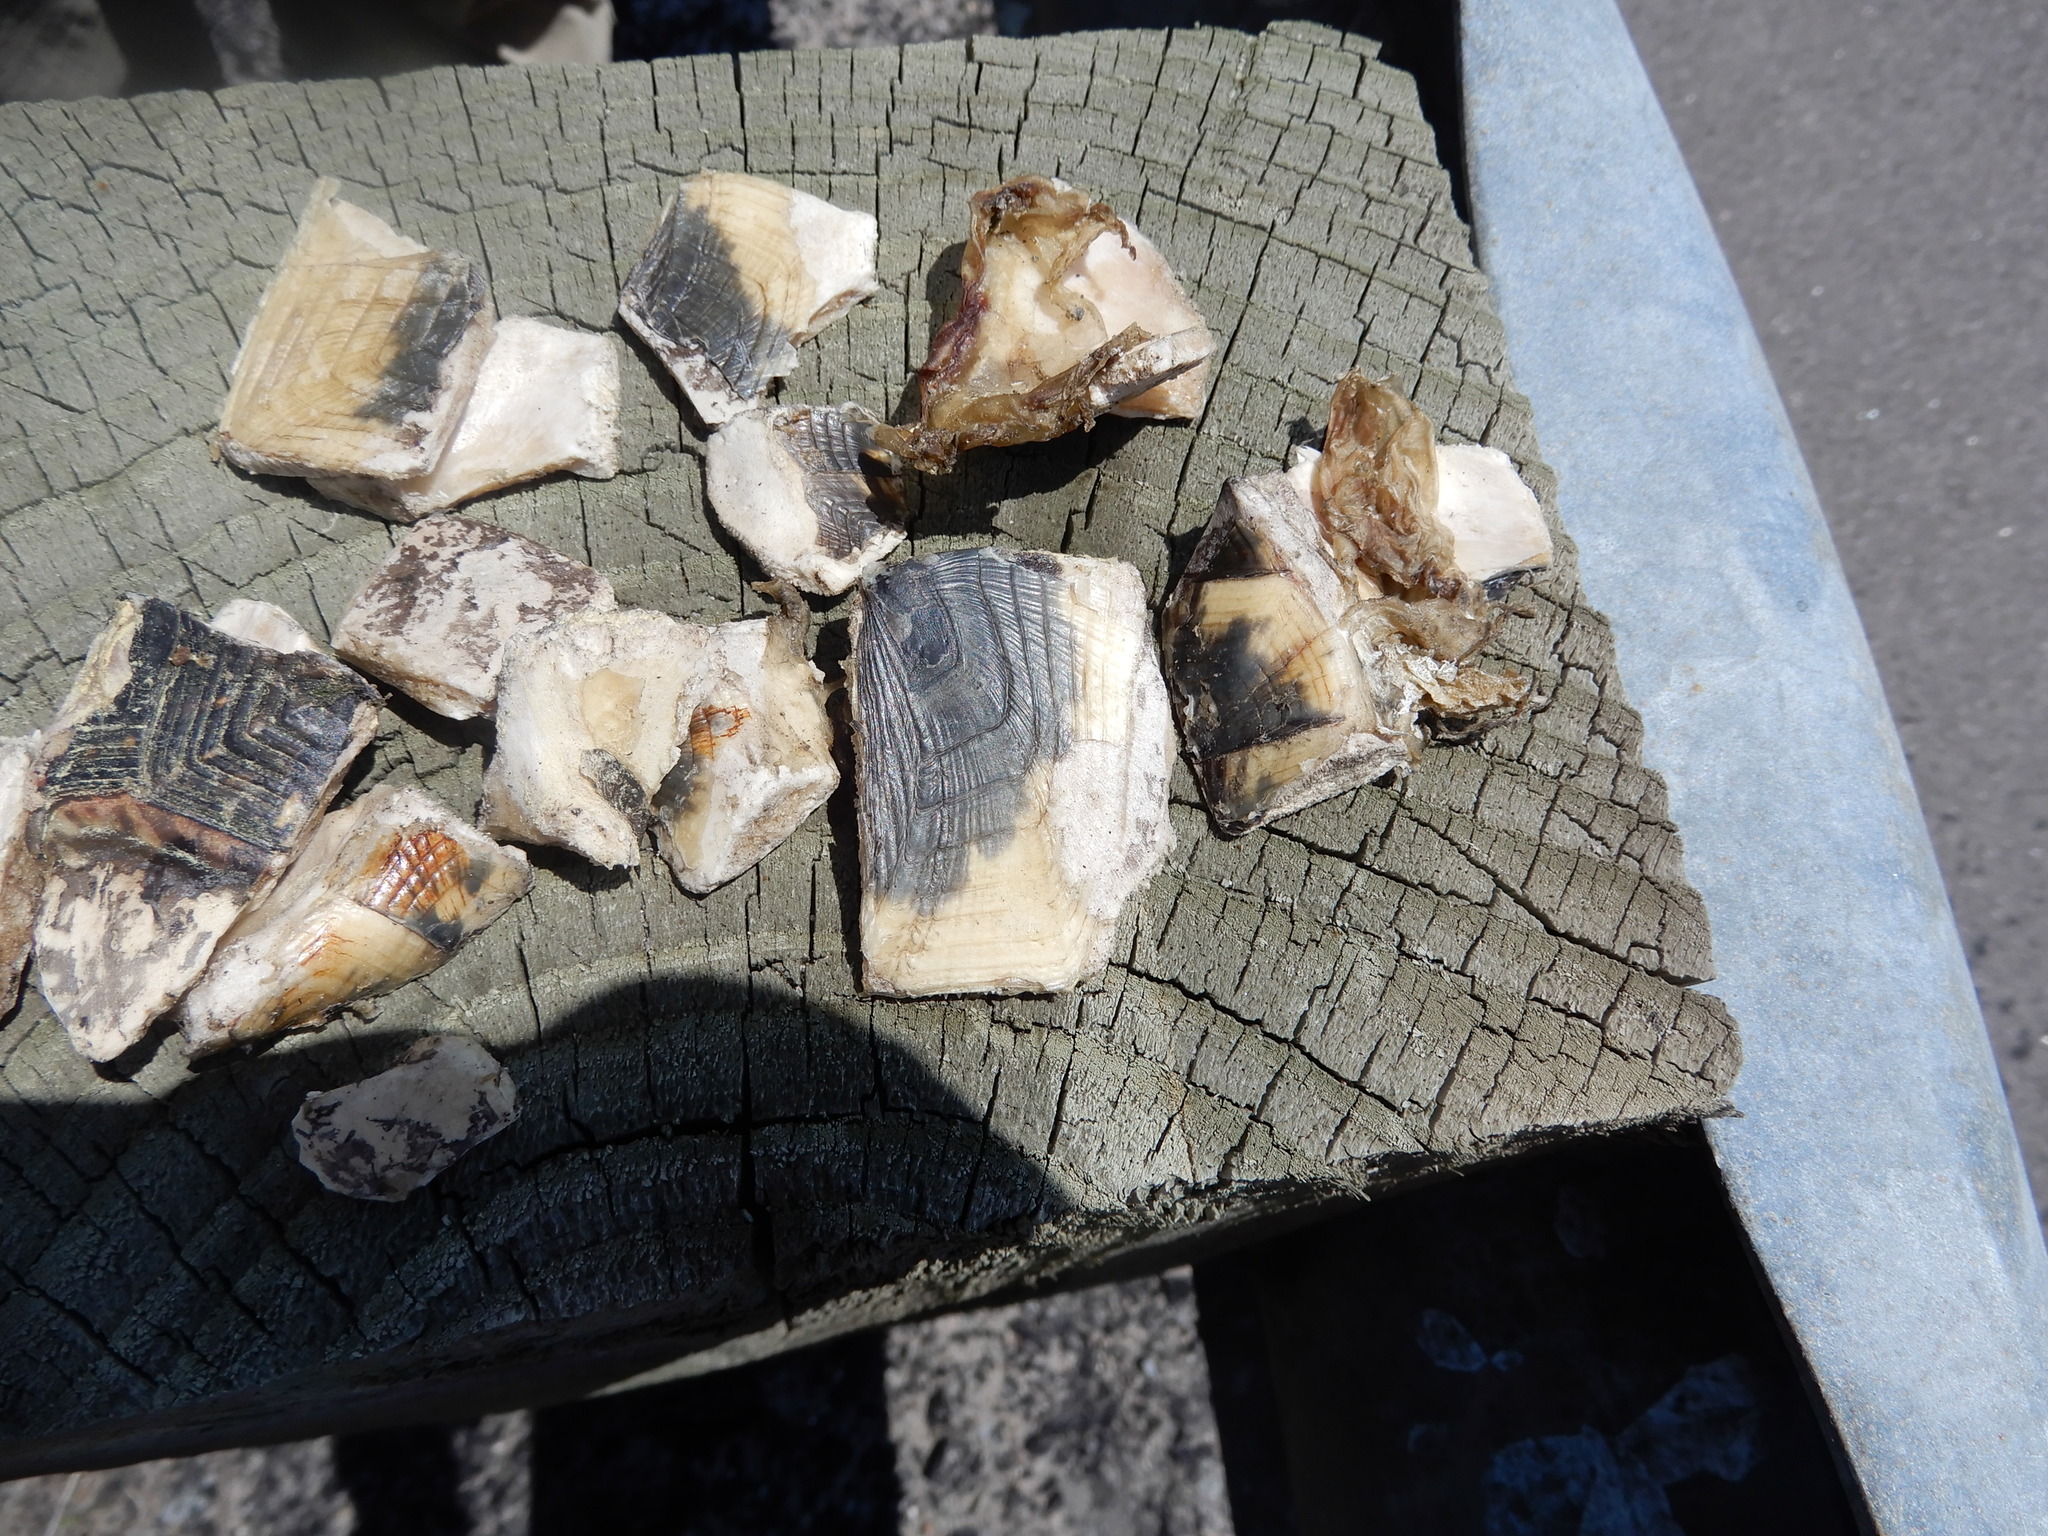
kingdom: Animalia
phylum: Chordata
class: Testudines
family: Emydidae
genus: Emys
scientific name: Emys blandingii
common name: Blanding's turtle
